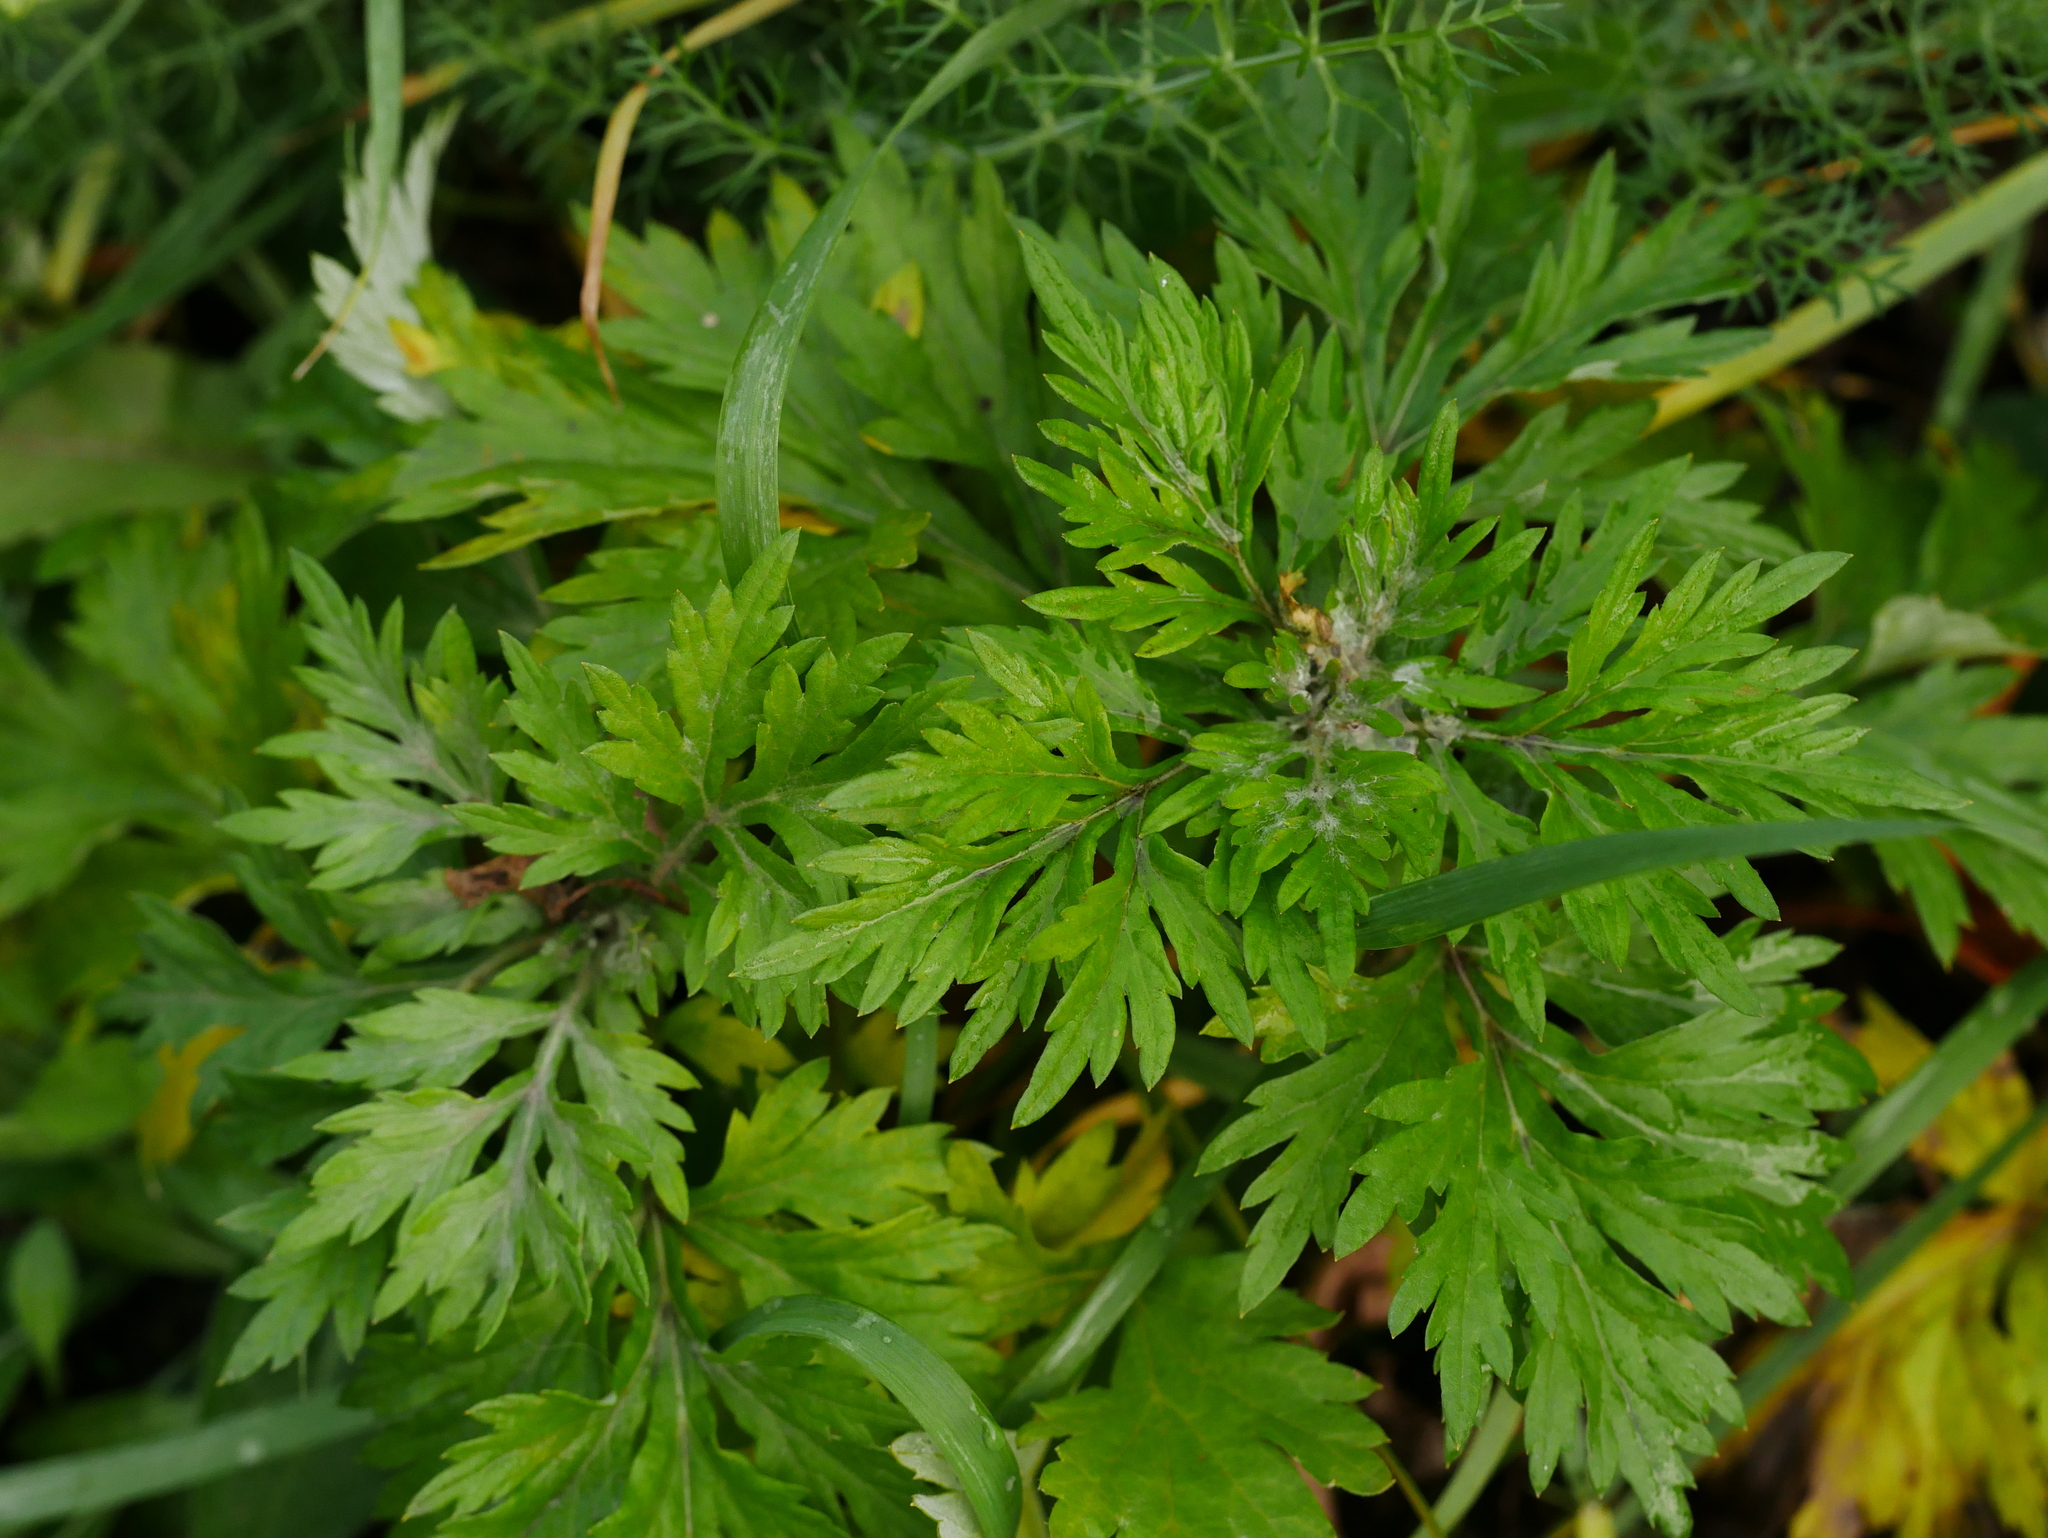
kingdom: Plantae
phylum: Tracheophyta
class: Magnoliopsida
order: Asterales
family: Asteraceae
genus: Artemisia
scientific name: Artemisia vulgaris
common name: Mugwort
